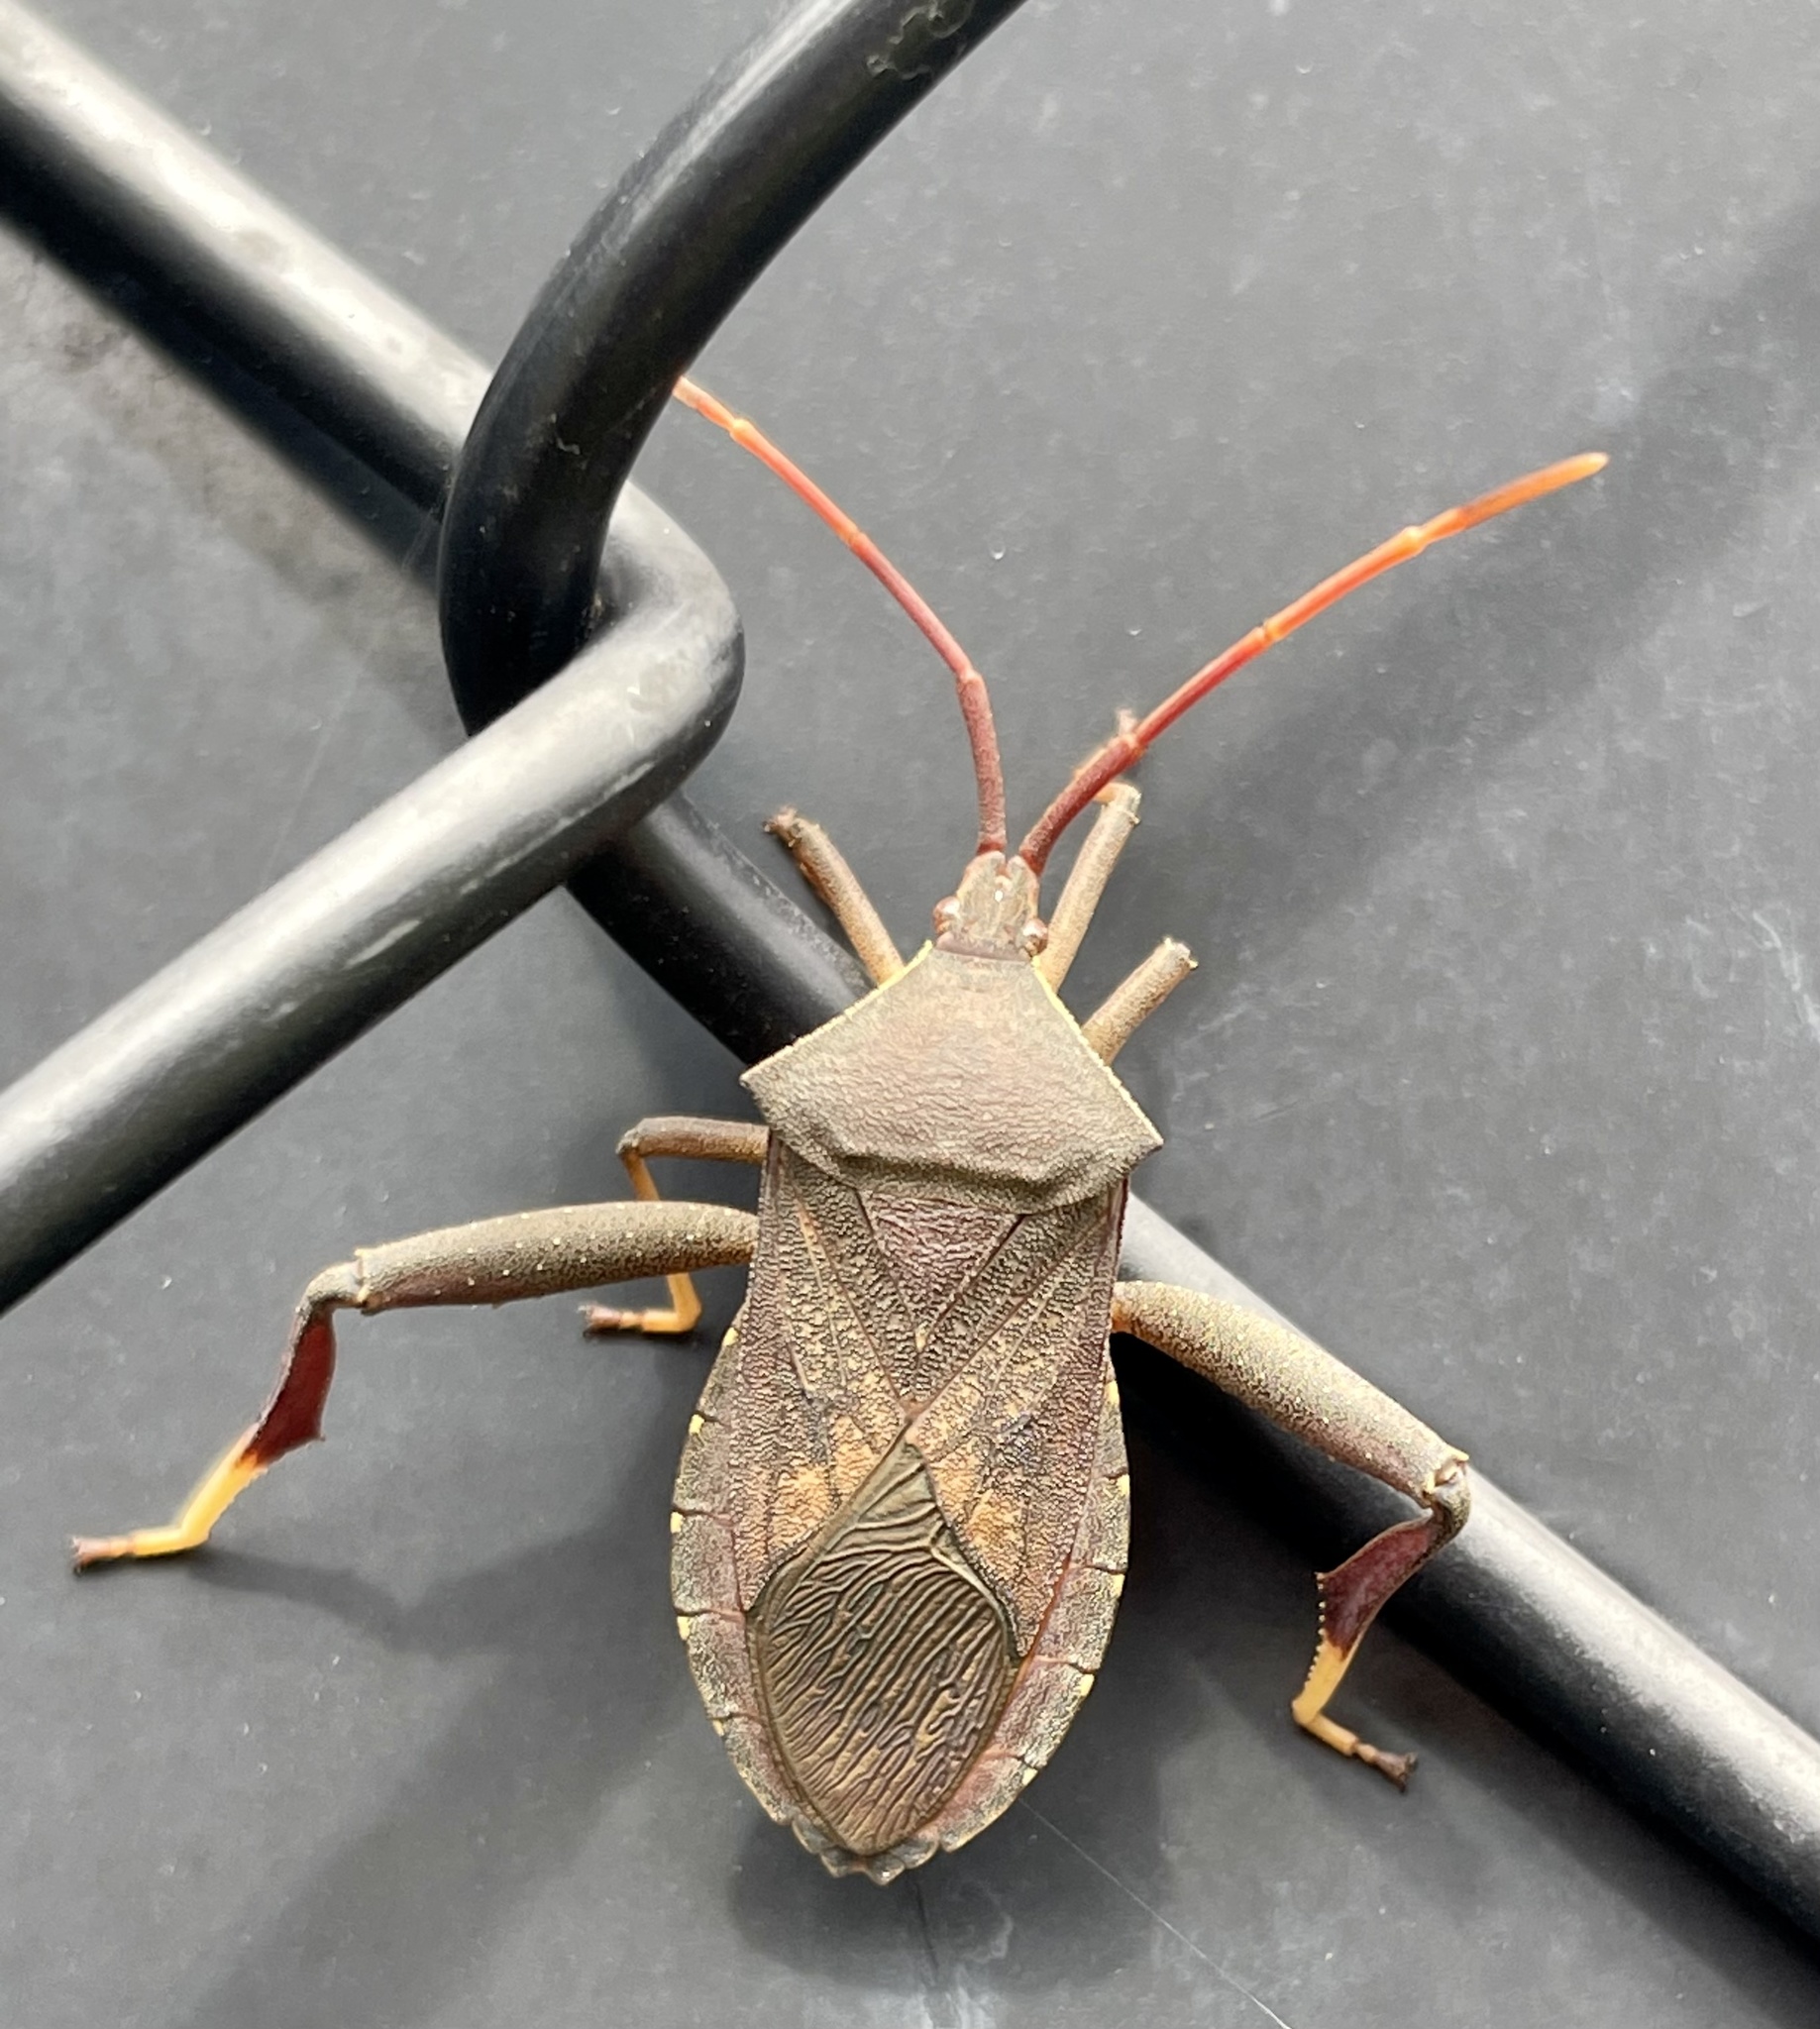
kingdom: Animalia
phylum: Arthropoda
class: Insecta
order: Hemiptera
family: Coreidae
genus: Amorbus
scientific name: Amorbus robustus
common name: Common gum-tree bug
